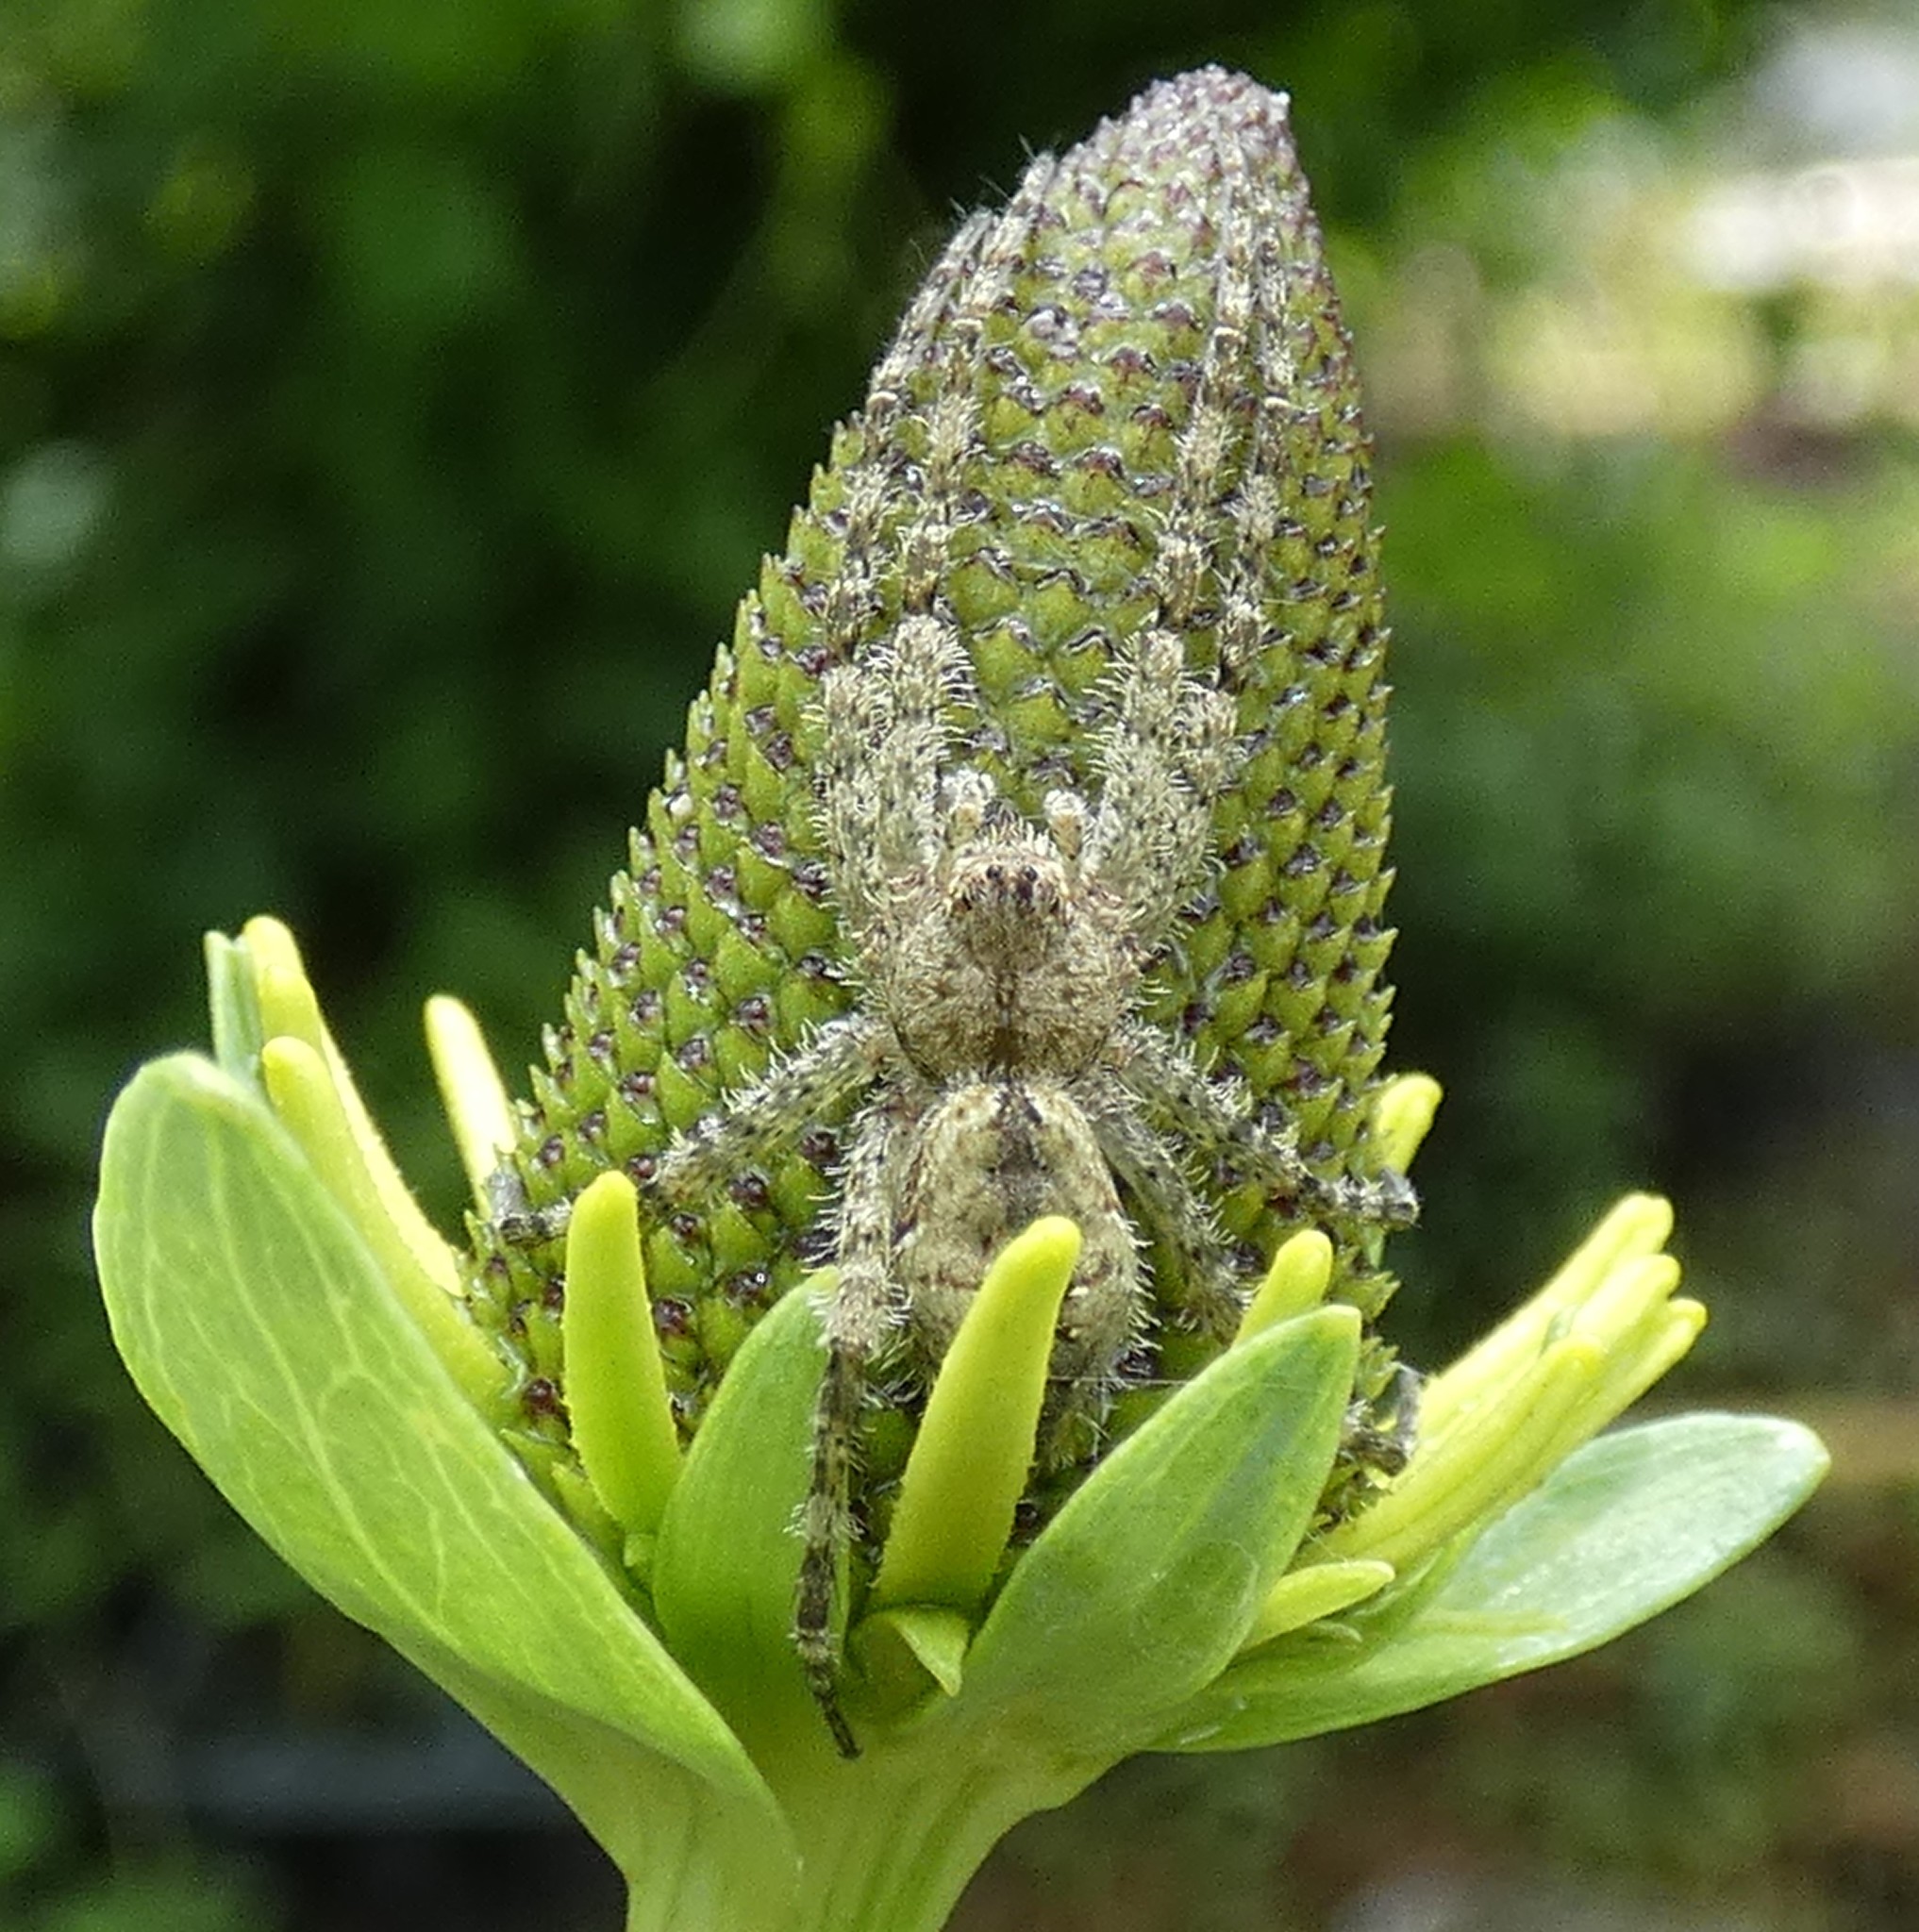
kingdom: Animalia
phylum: Arthropoda
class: Arachnida
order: Araneae
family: Pisauridae
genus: Dolomedes
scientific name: Dolomedes albineus
